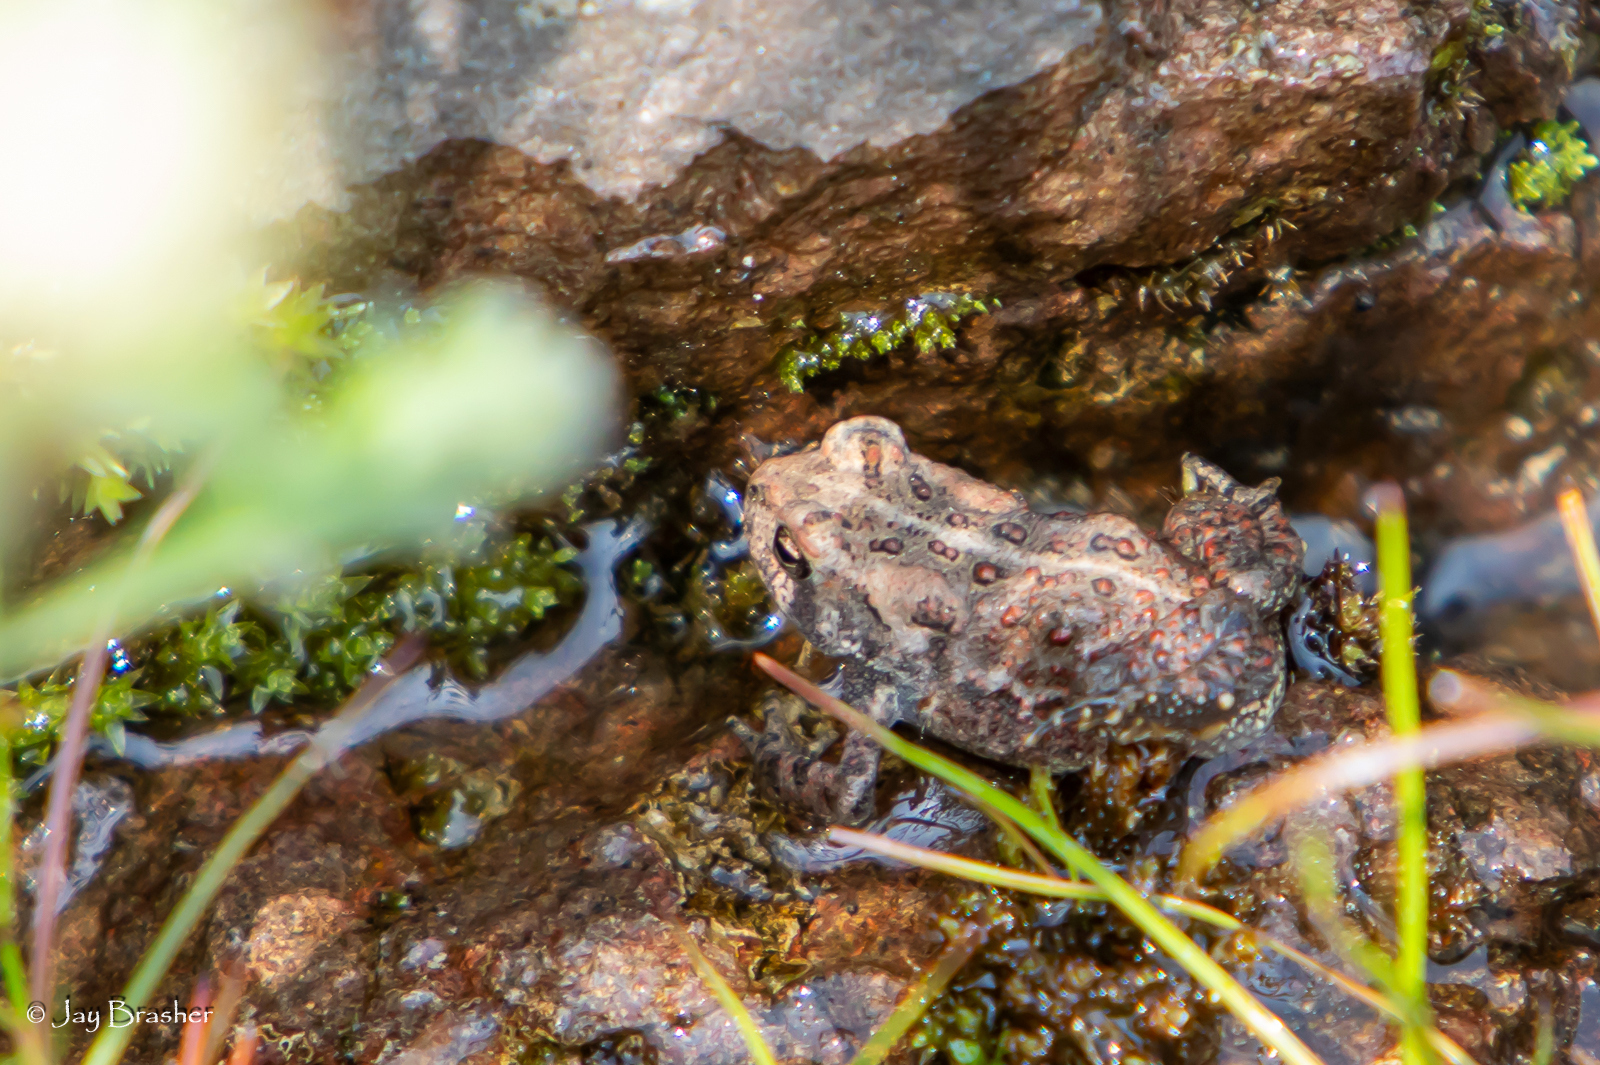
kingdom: Animalia
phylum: Chordata
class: Amphibia
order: Anura
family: Bufonidae
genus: Anaxyrus
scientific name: Anaxyrus americanus
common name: American toad
